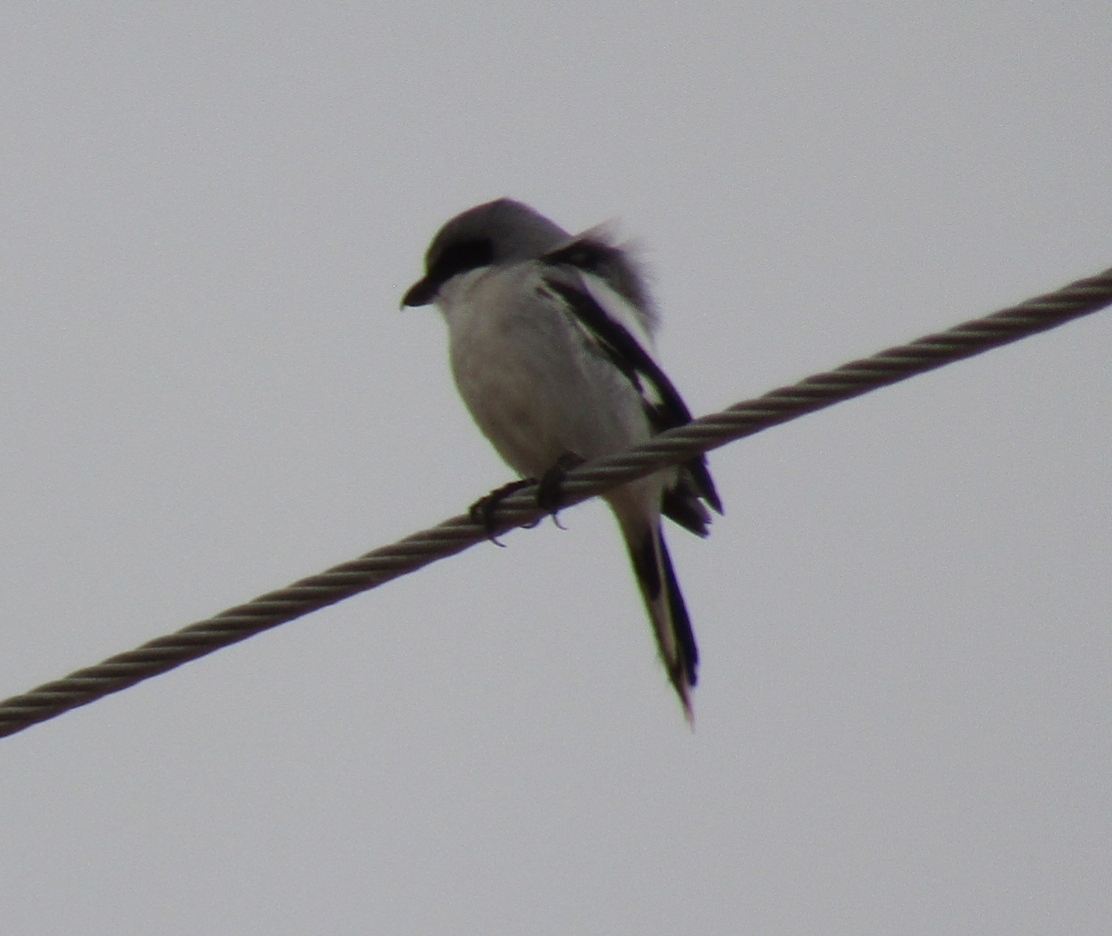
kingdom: Animalia
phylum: Chordata
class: Aves
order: Passeriformes
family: Laniidae
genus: Lanius
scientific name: Lanius ludovicianus
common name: Loggerhead shrike
